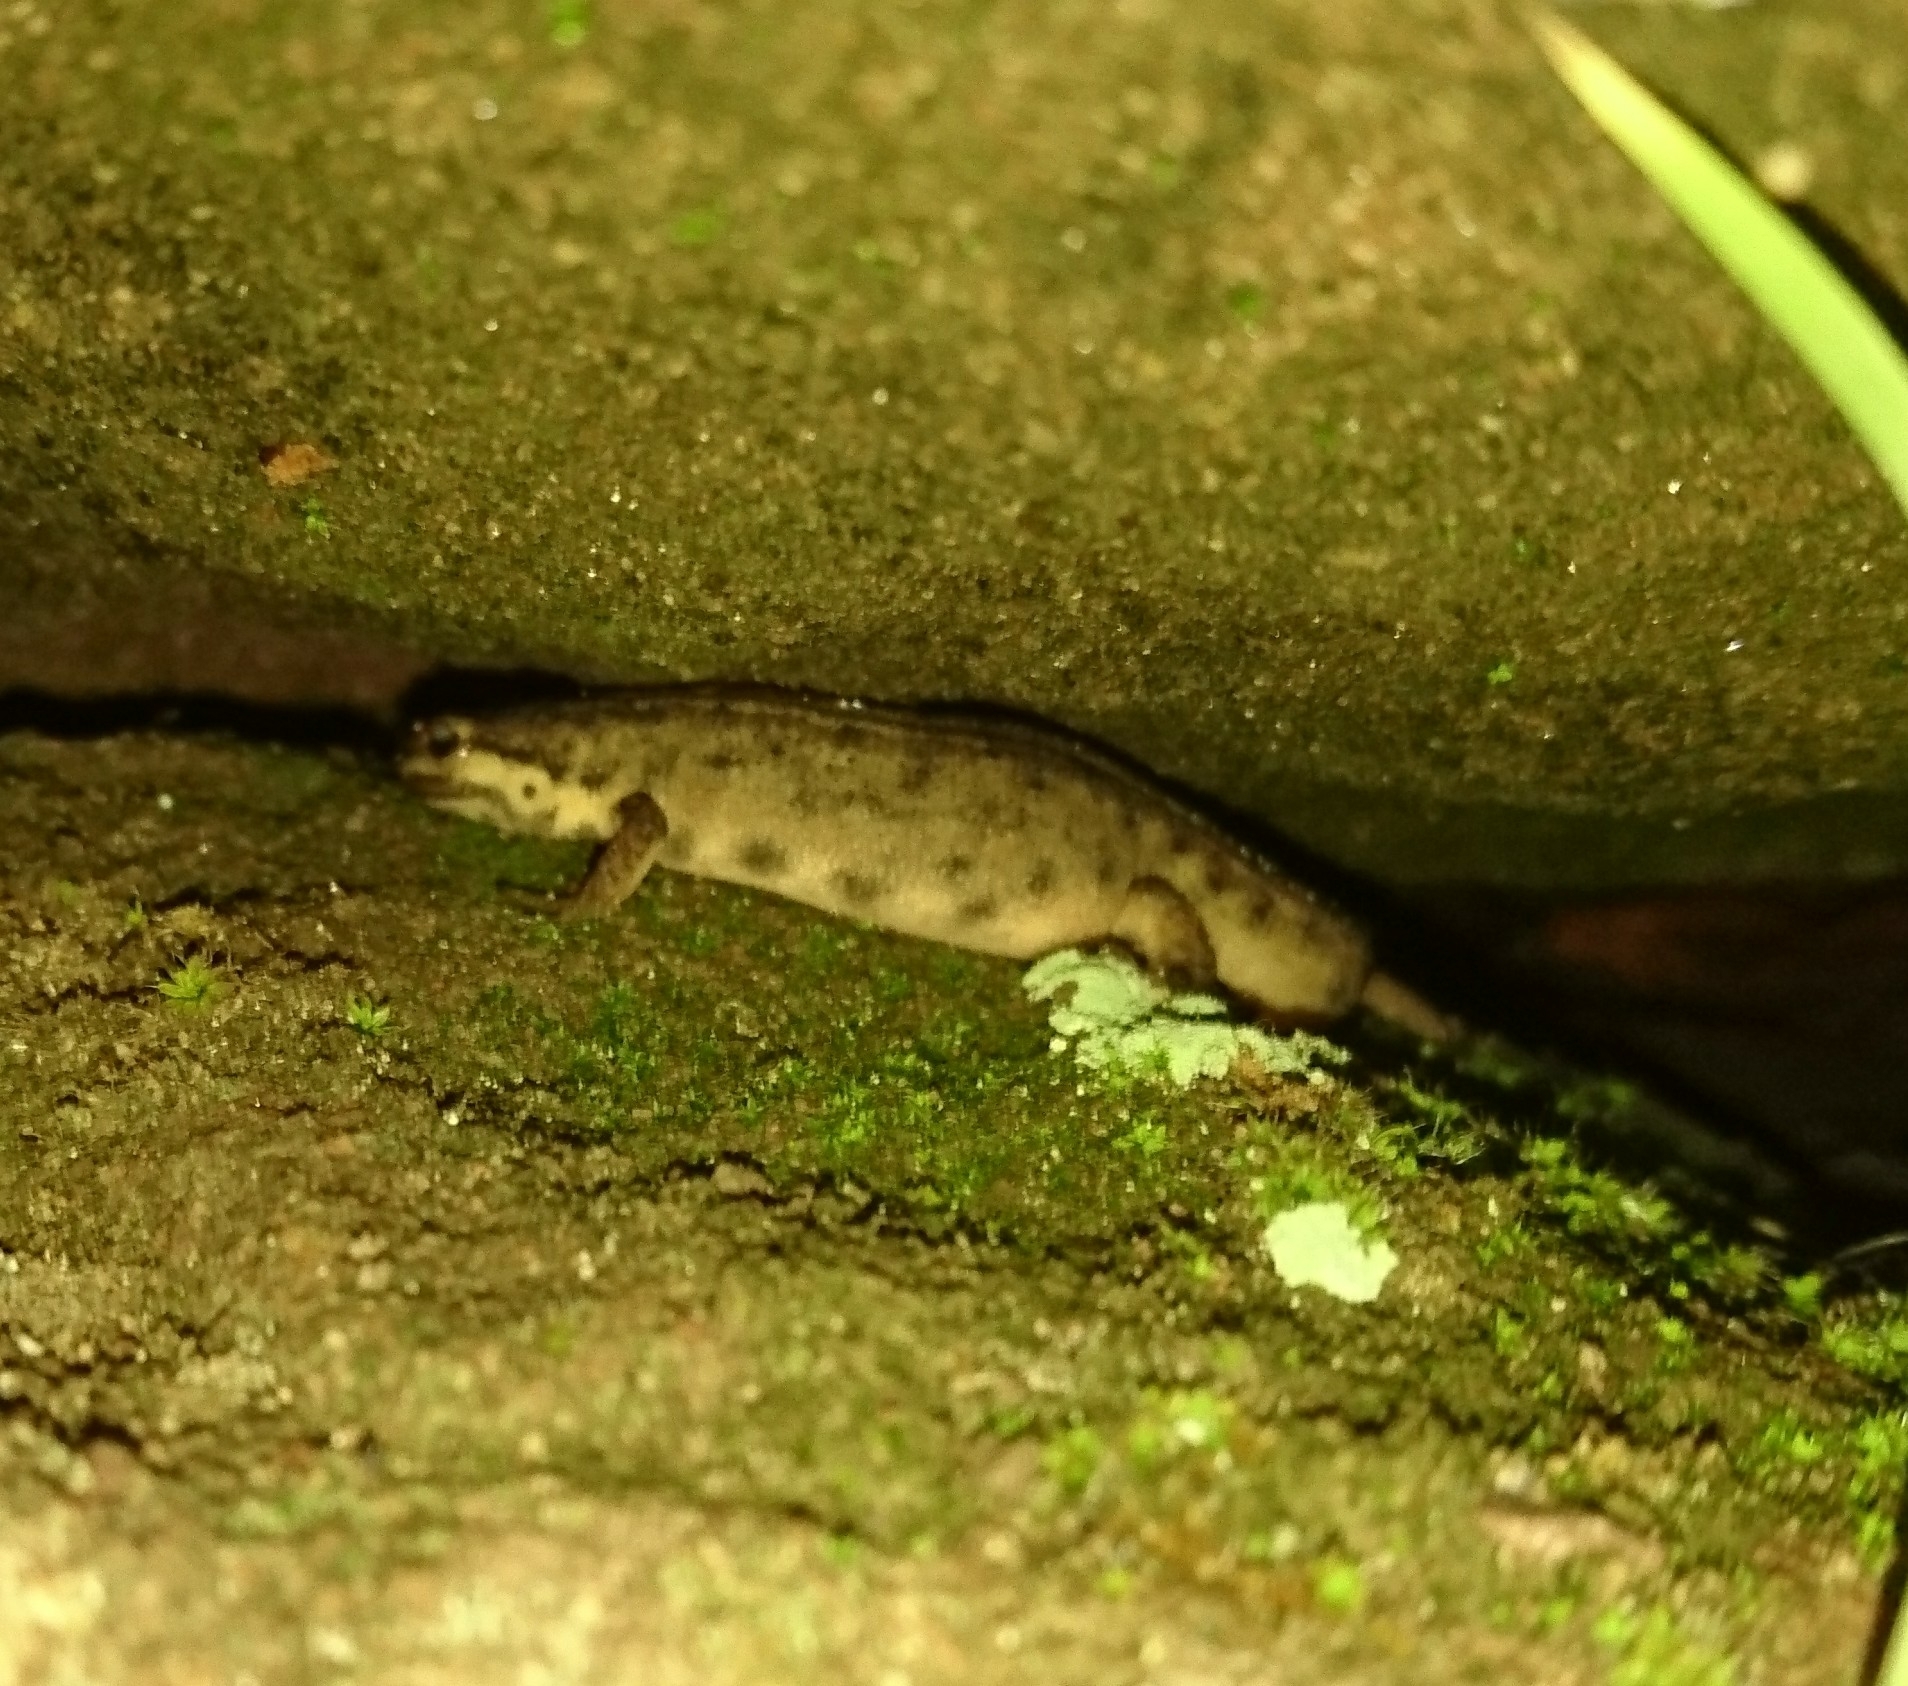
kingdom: Animalia
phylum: Chordata
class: Amphibia
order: Caudata
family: Salamandridae
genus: Lissotriton
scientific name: Lissotriton vulgaris
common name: Smooth newt
